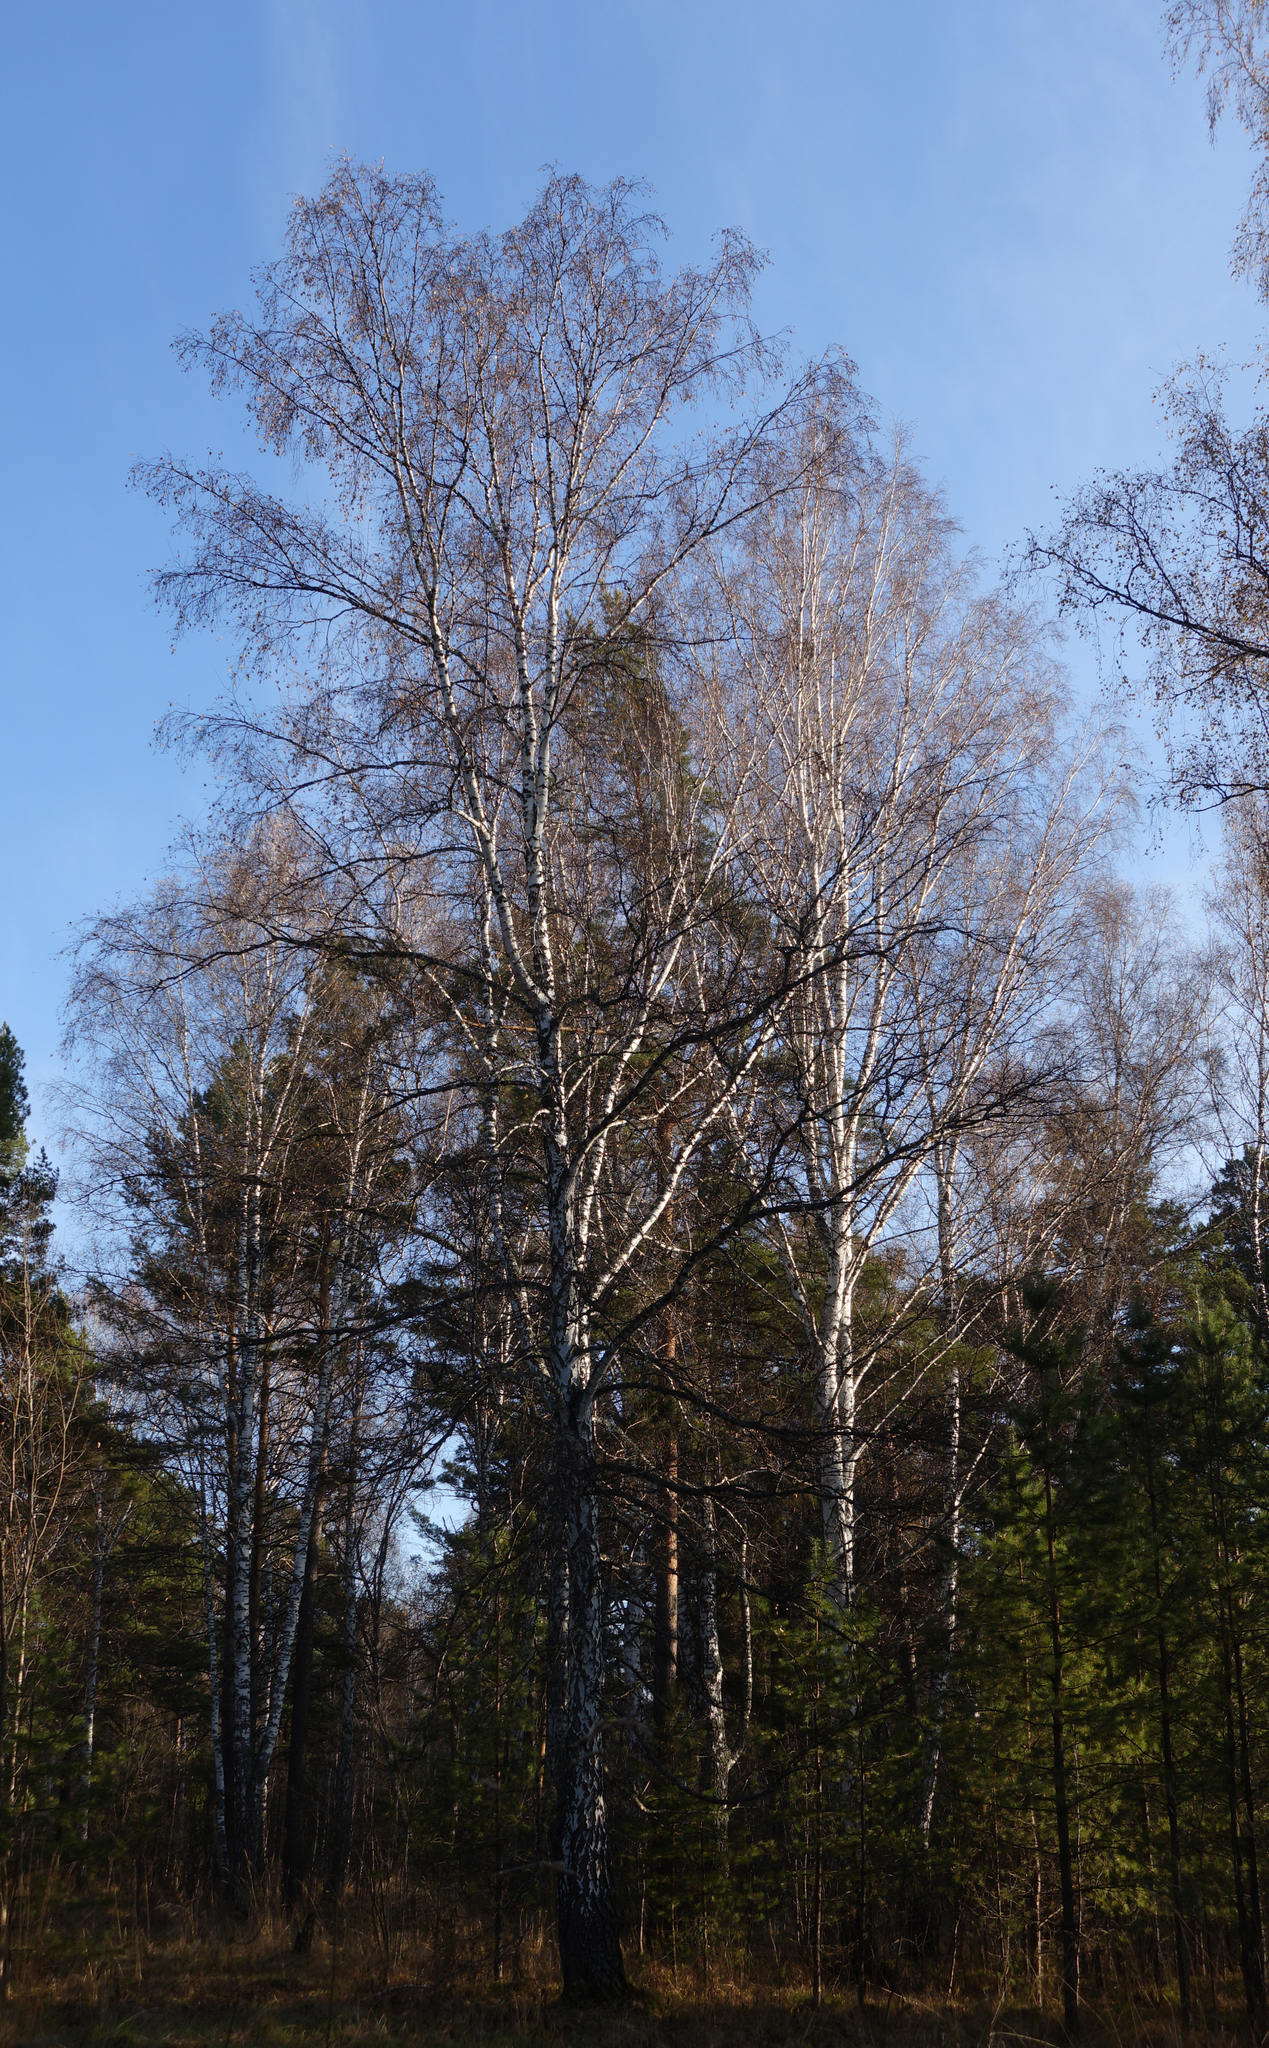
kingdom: Plantae
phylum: Tracheophyta
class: Magnoliopsida
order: Fagales
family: Betulaceae
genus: Betula
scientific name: Betula pendula
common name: Silver birch
